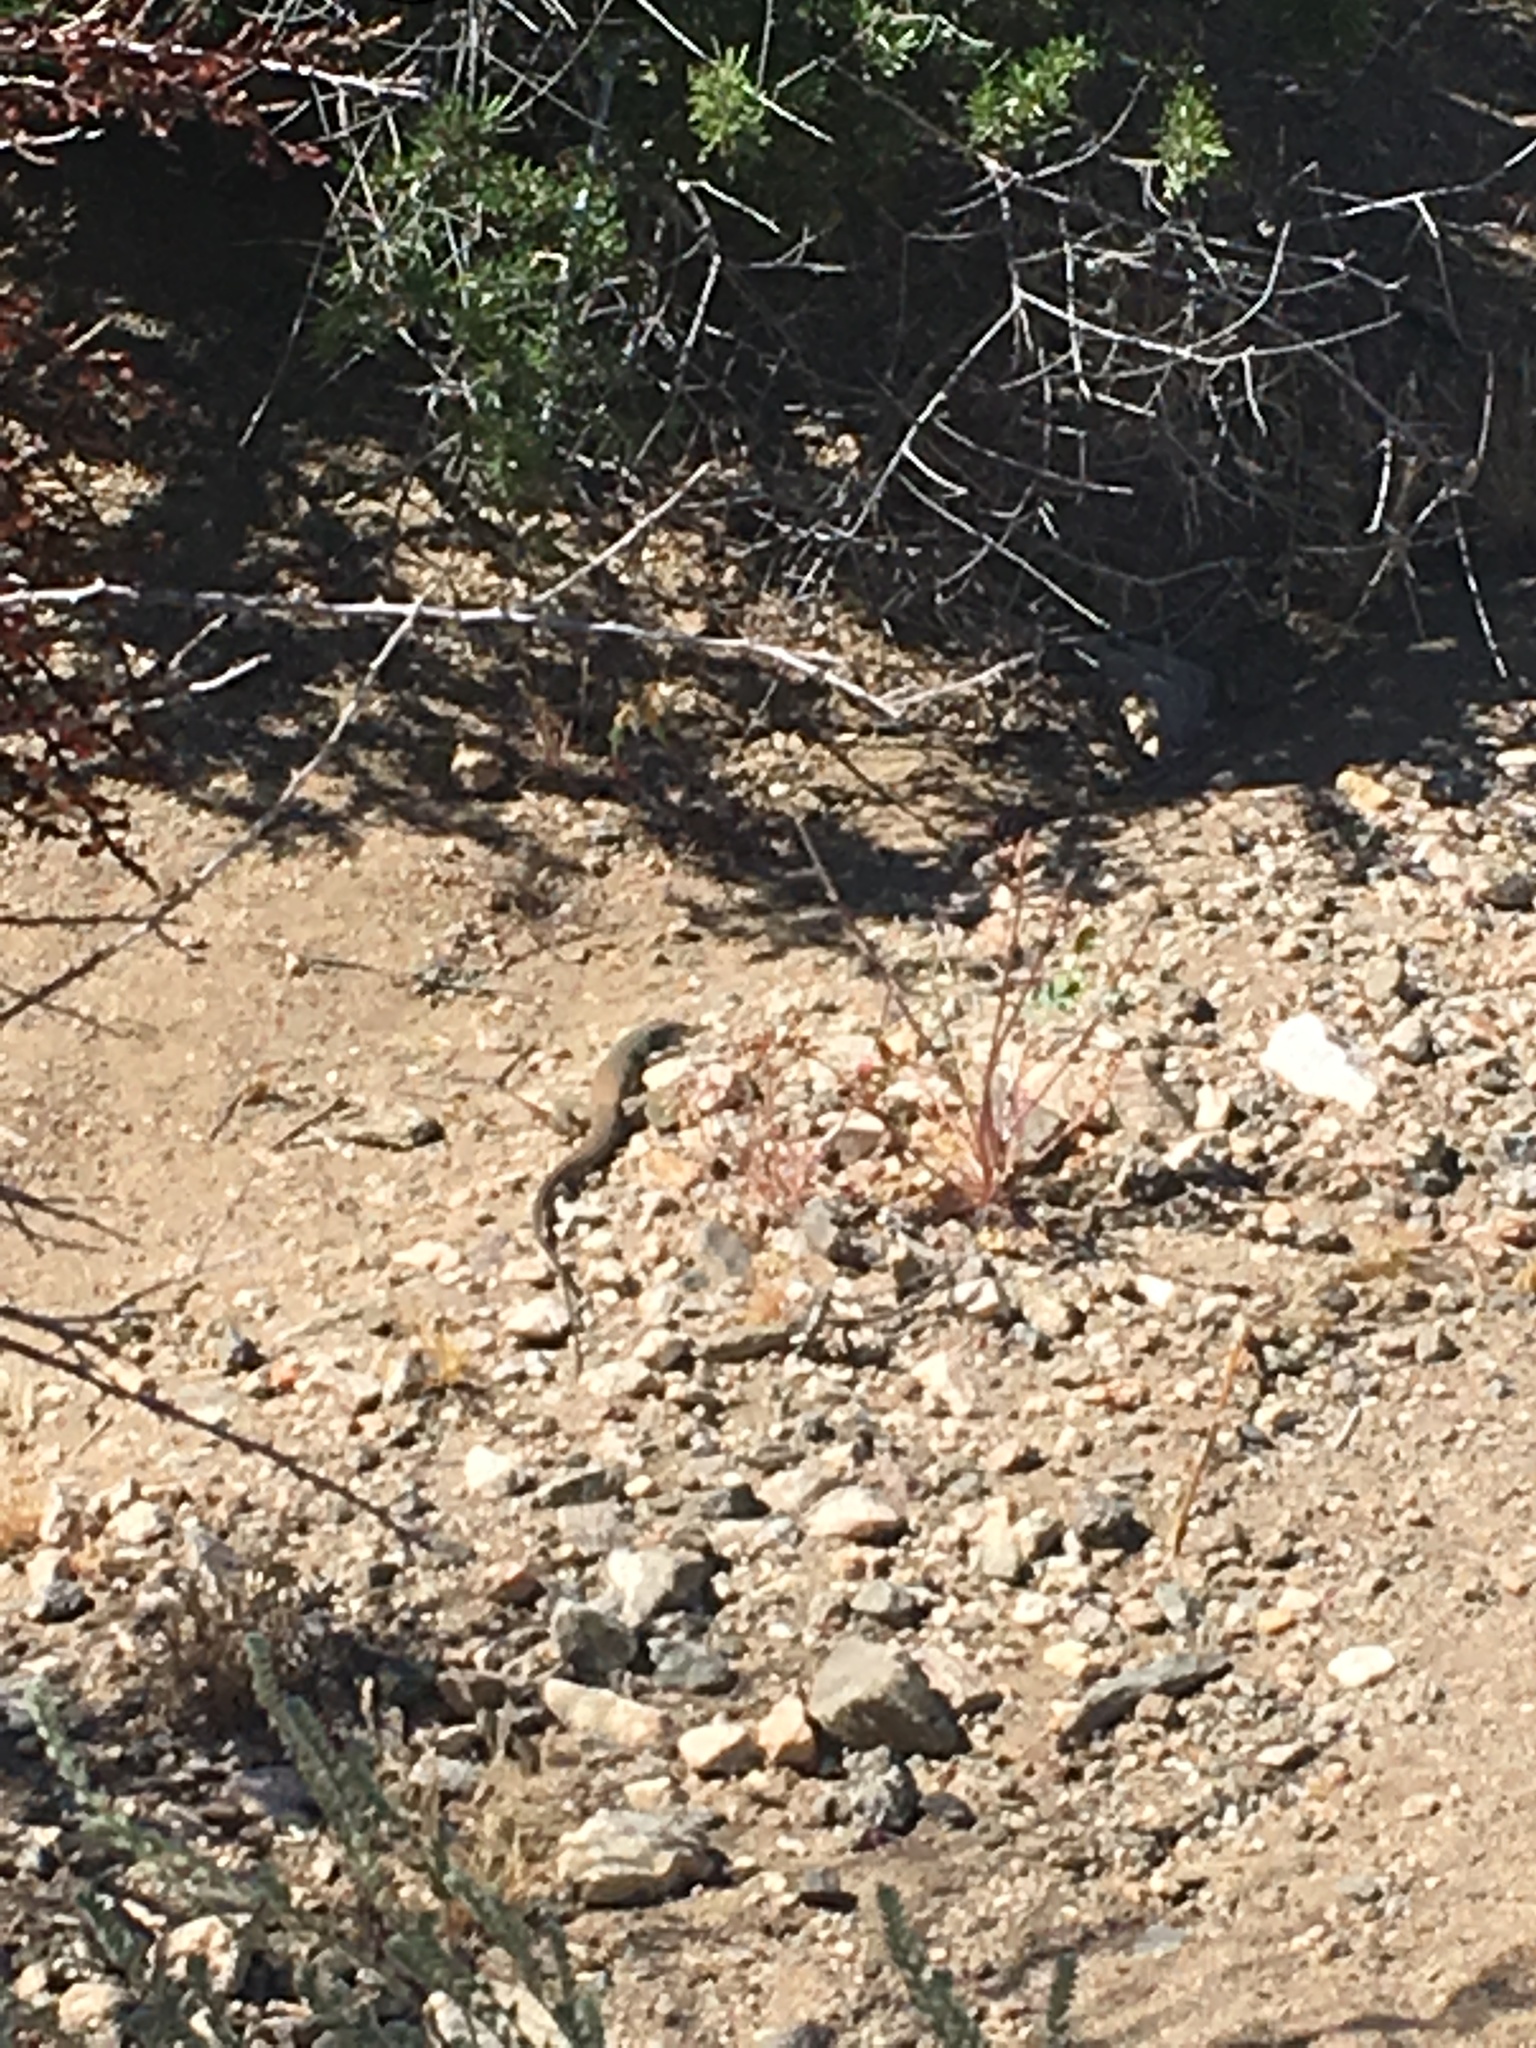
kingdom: Animalia
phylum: Chordata
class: Squamata
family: Teiidae
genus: Aspidoscelis
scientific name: Aspidoscelis tigris
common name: Tiger whiptail
